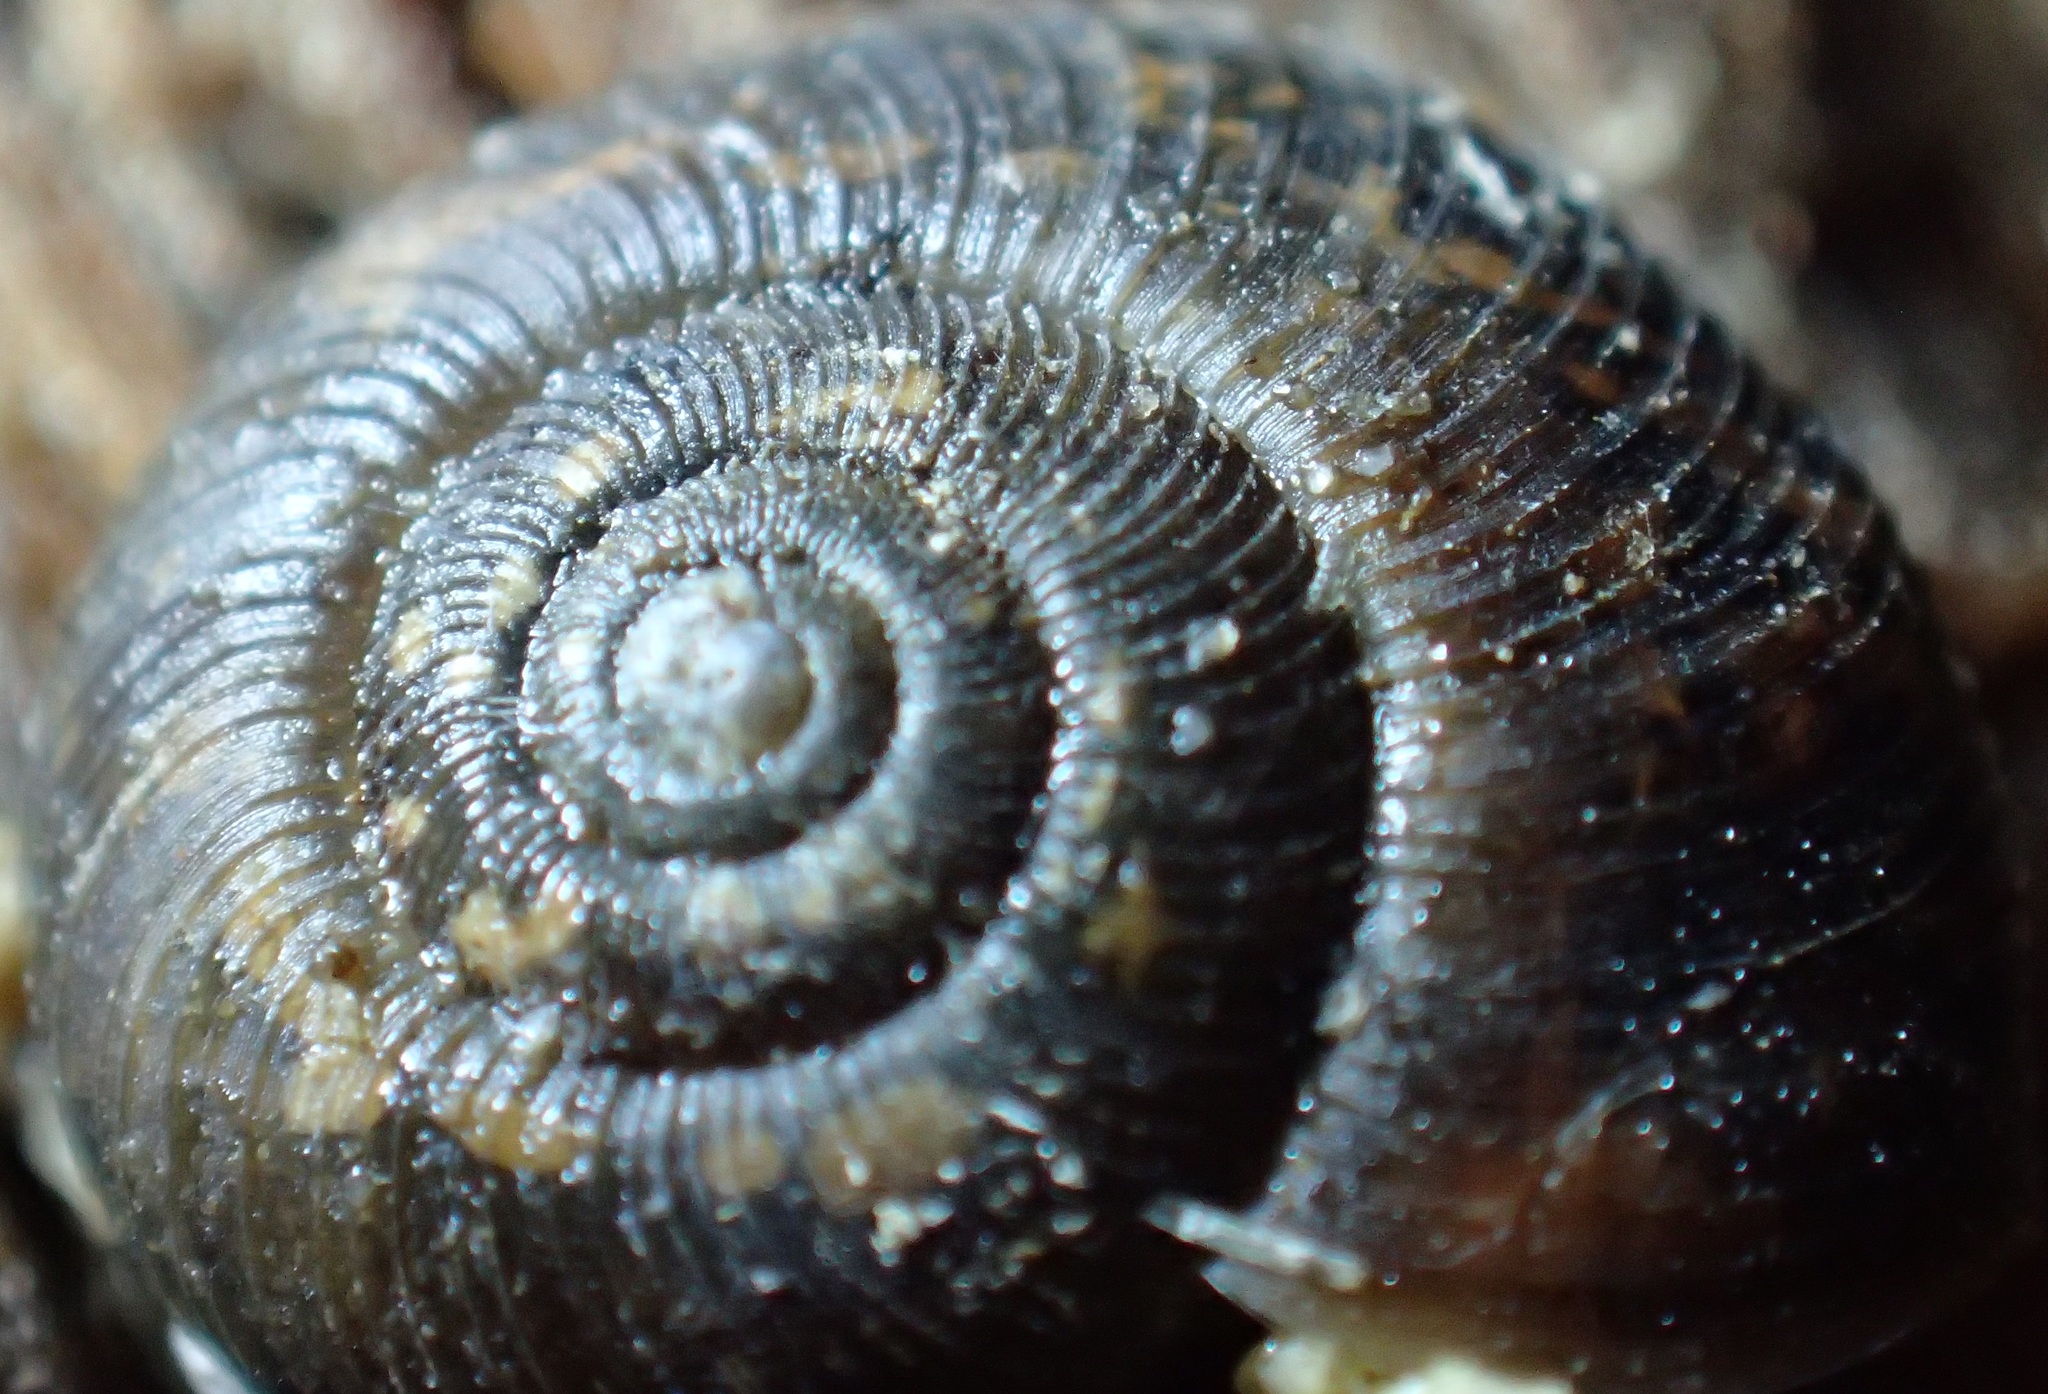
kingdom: Animalia
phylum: Mollusca
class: Gastropoda
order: Stylommatophora
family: Charopidae
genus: Stenacapha
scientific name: Stenacapha hamiltoni
